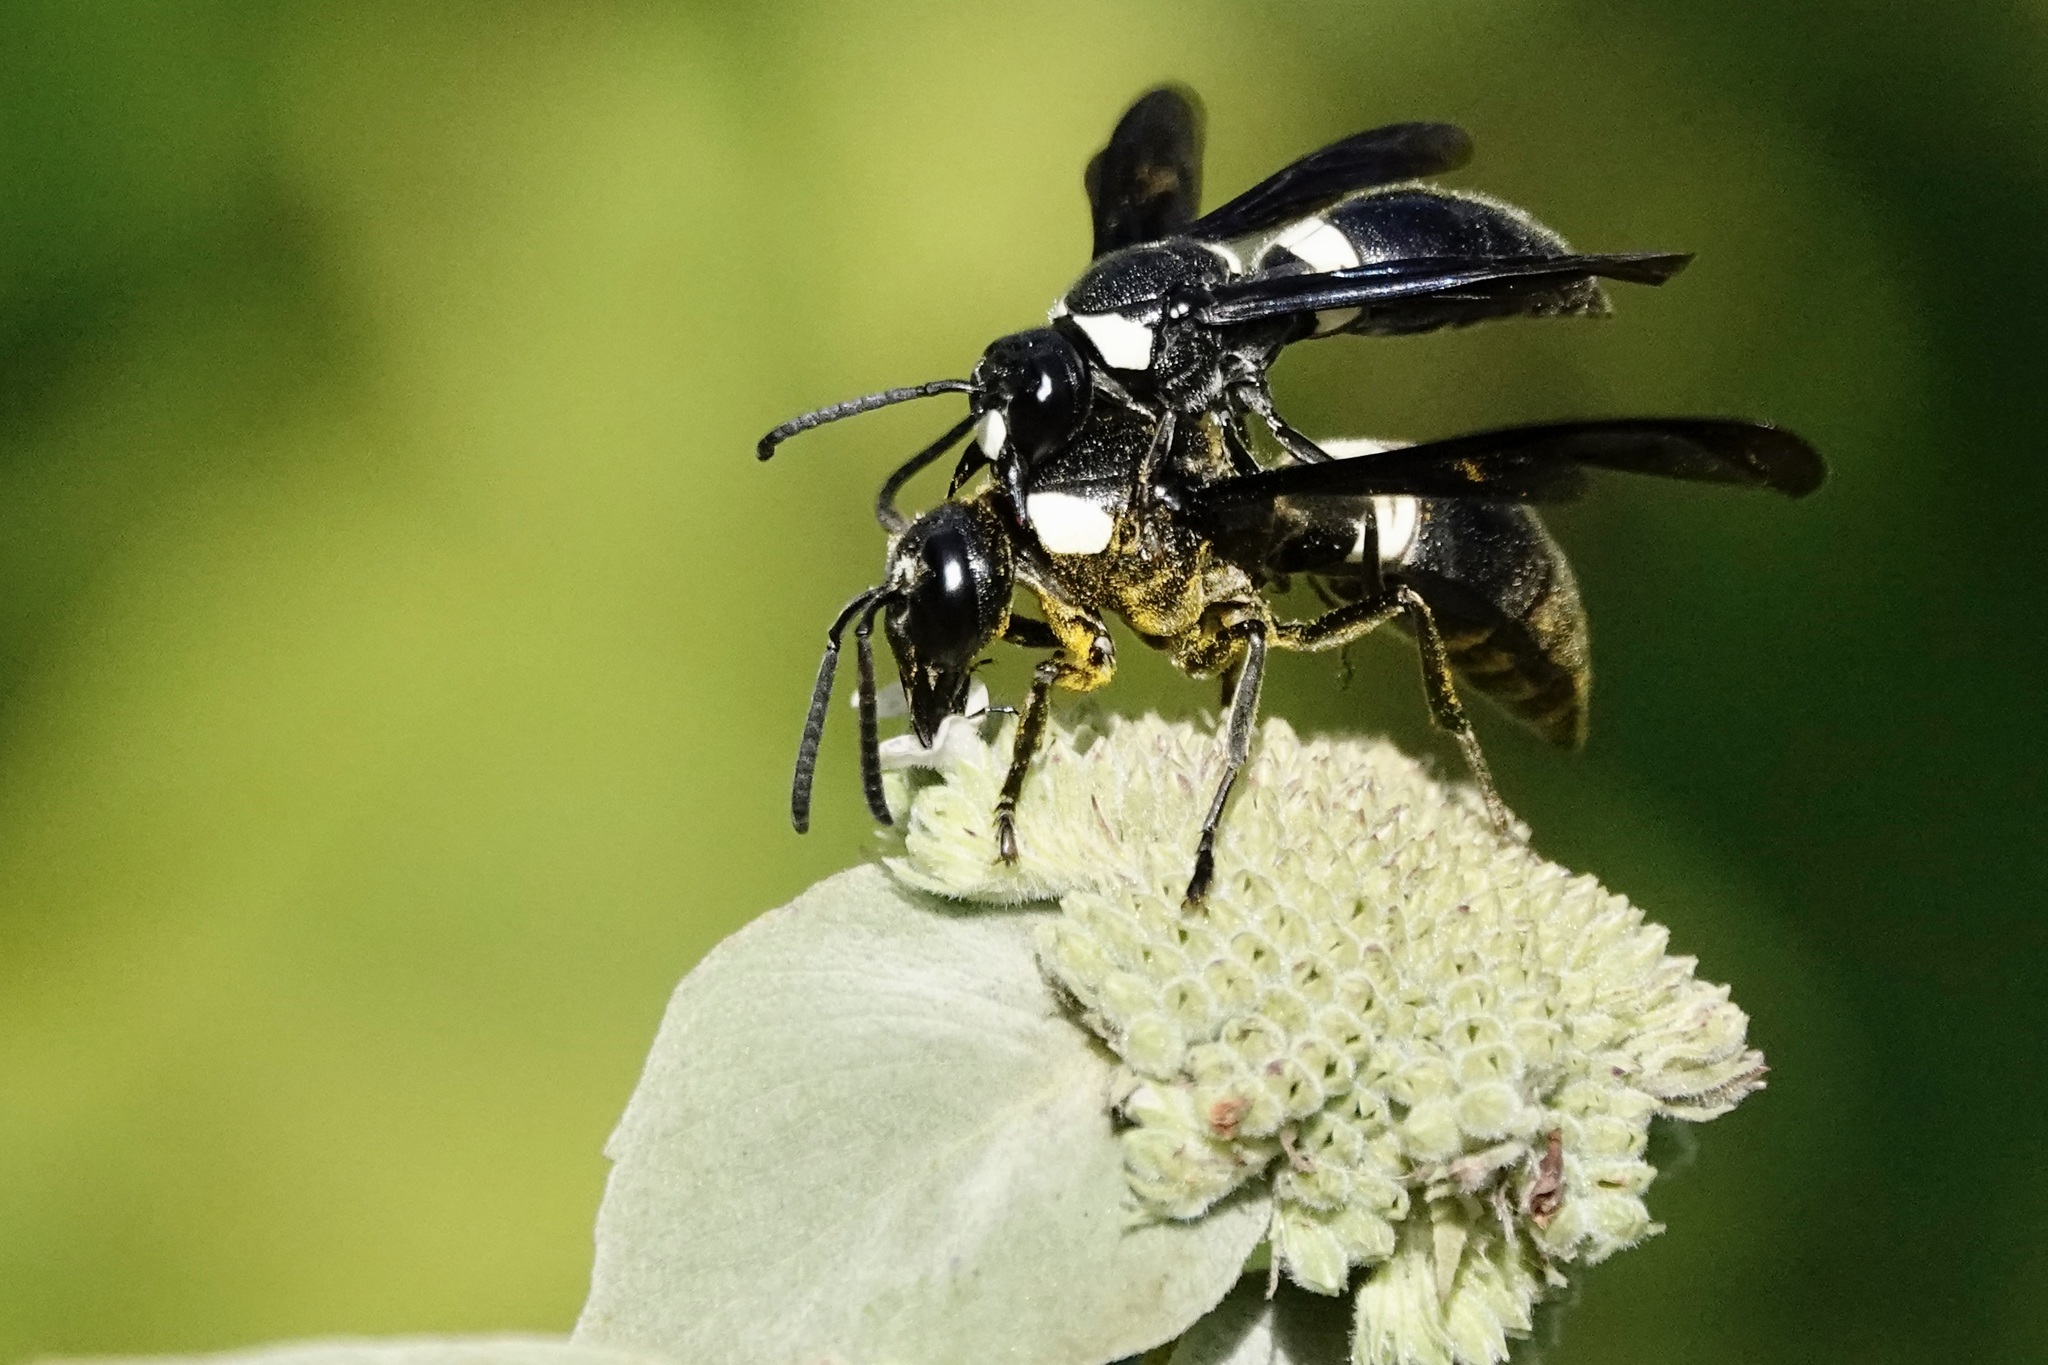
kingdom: Animalia
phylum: Arthropoda
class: Insecta
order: Hymenoptera
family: Eumenidae
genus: Monobia
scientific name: Monobia quadridens
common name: Four-toothed mason wasp
